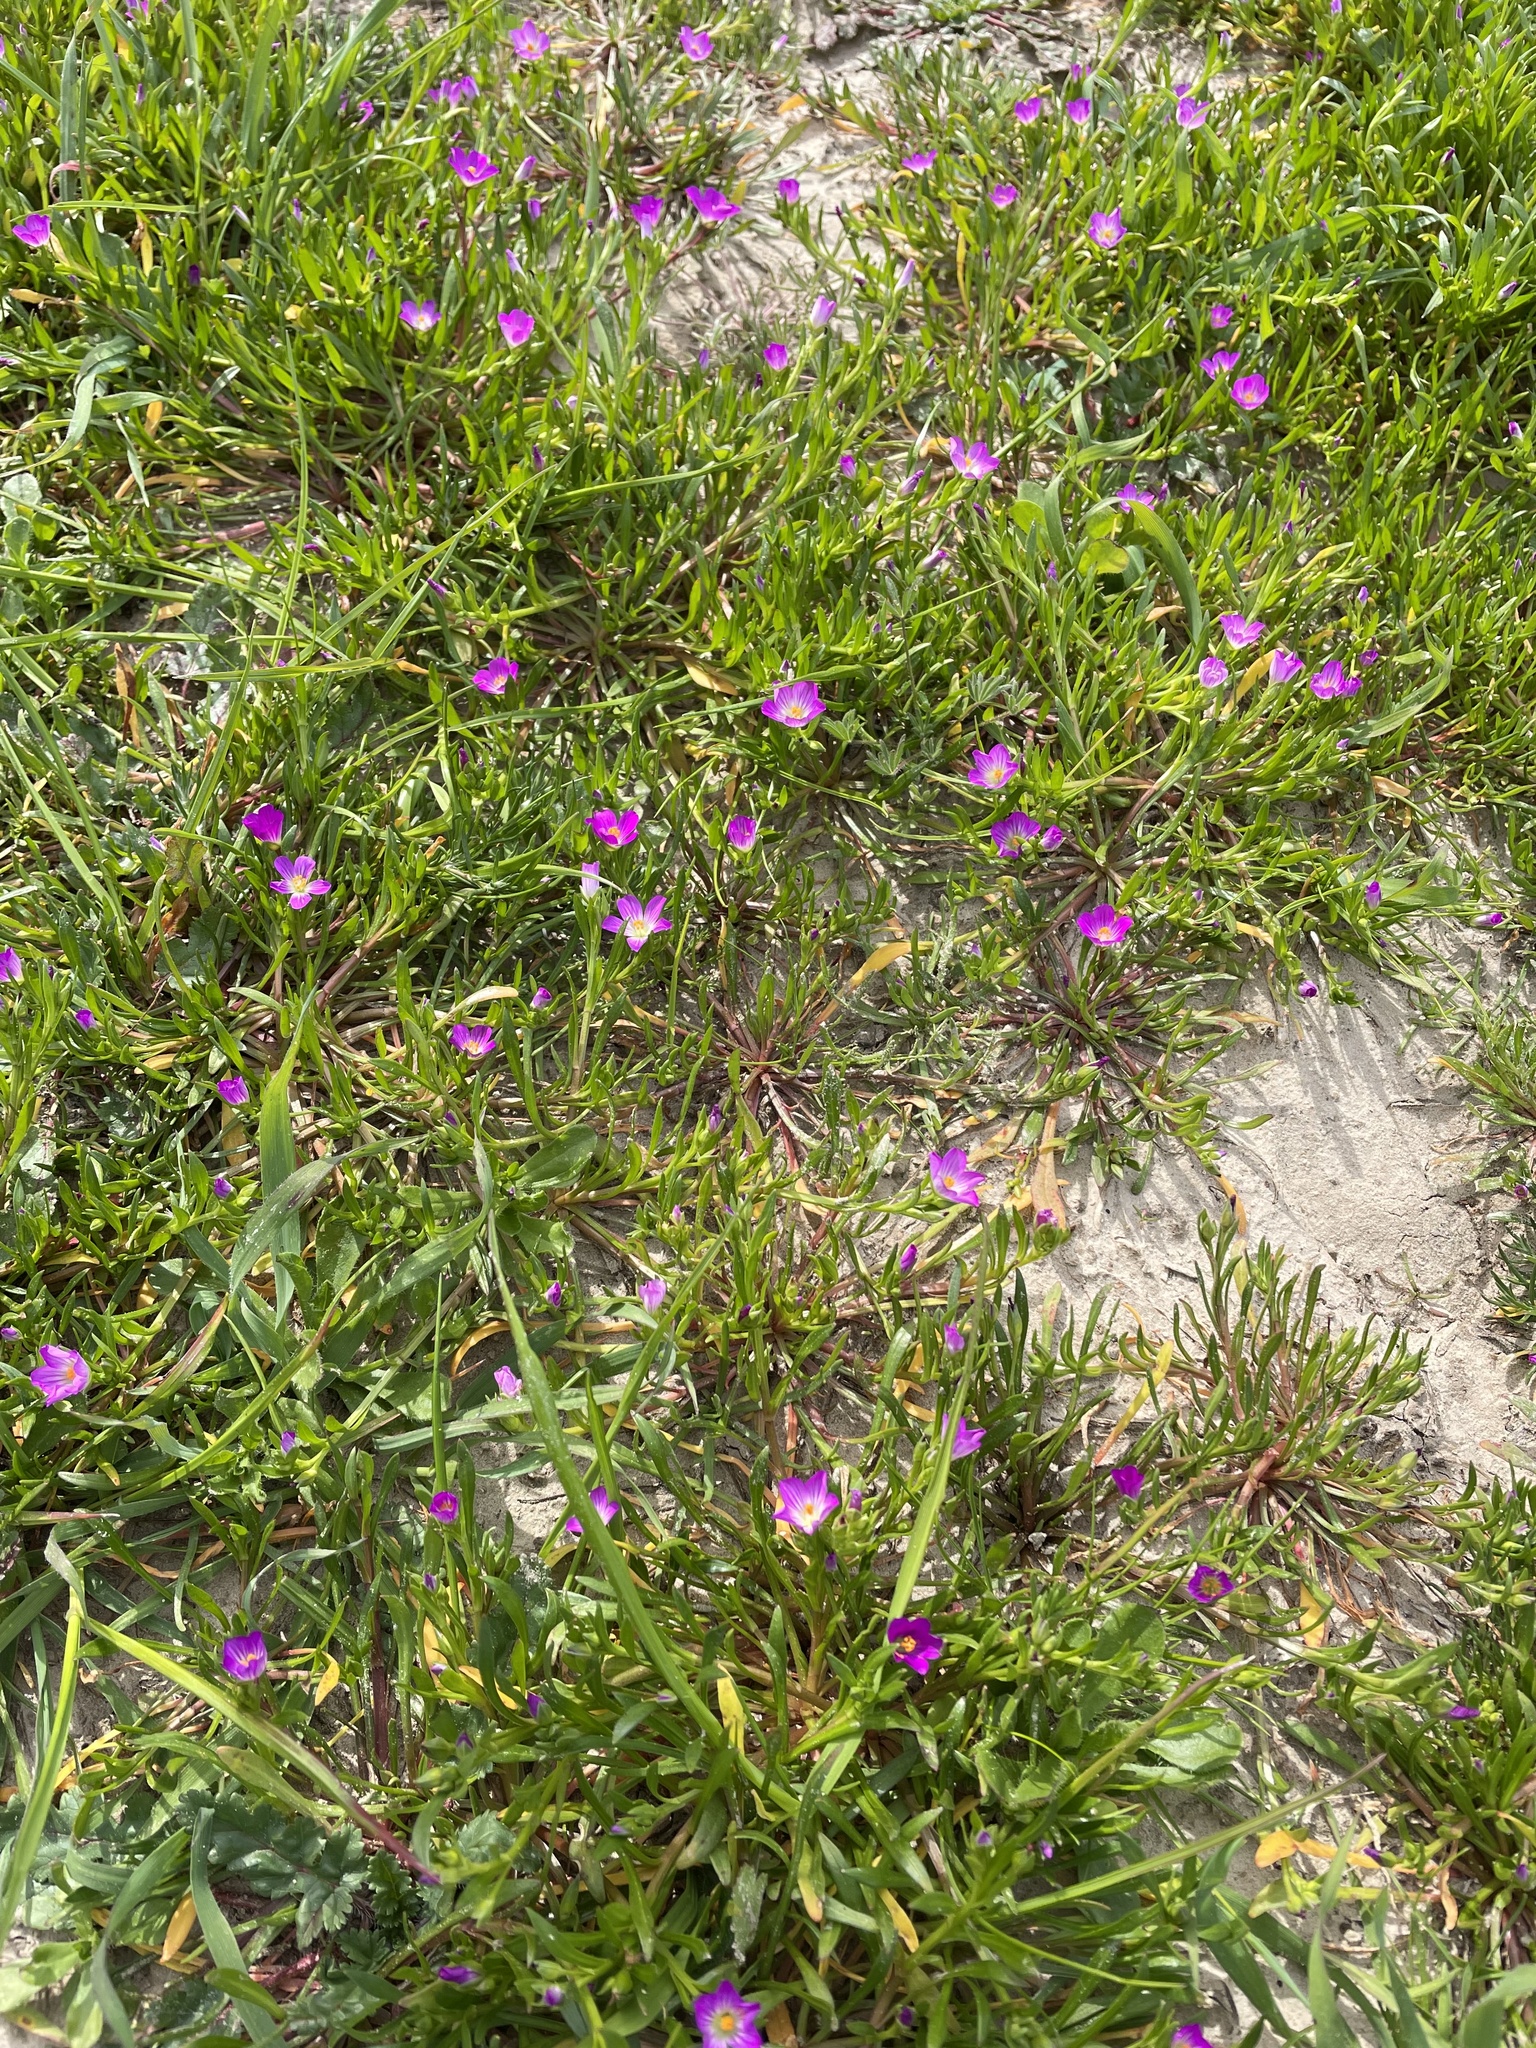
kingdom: Plantae
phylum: Tracheophyta
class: Magnoliopsida
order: Caryophyllales
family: Montiaceae
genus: Calandrinia
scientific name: Calandrinia menziesii
